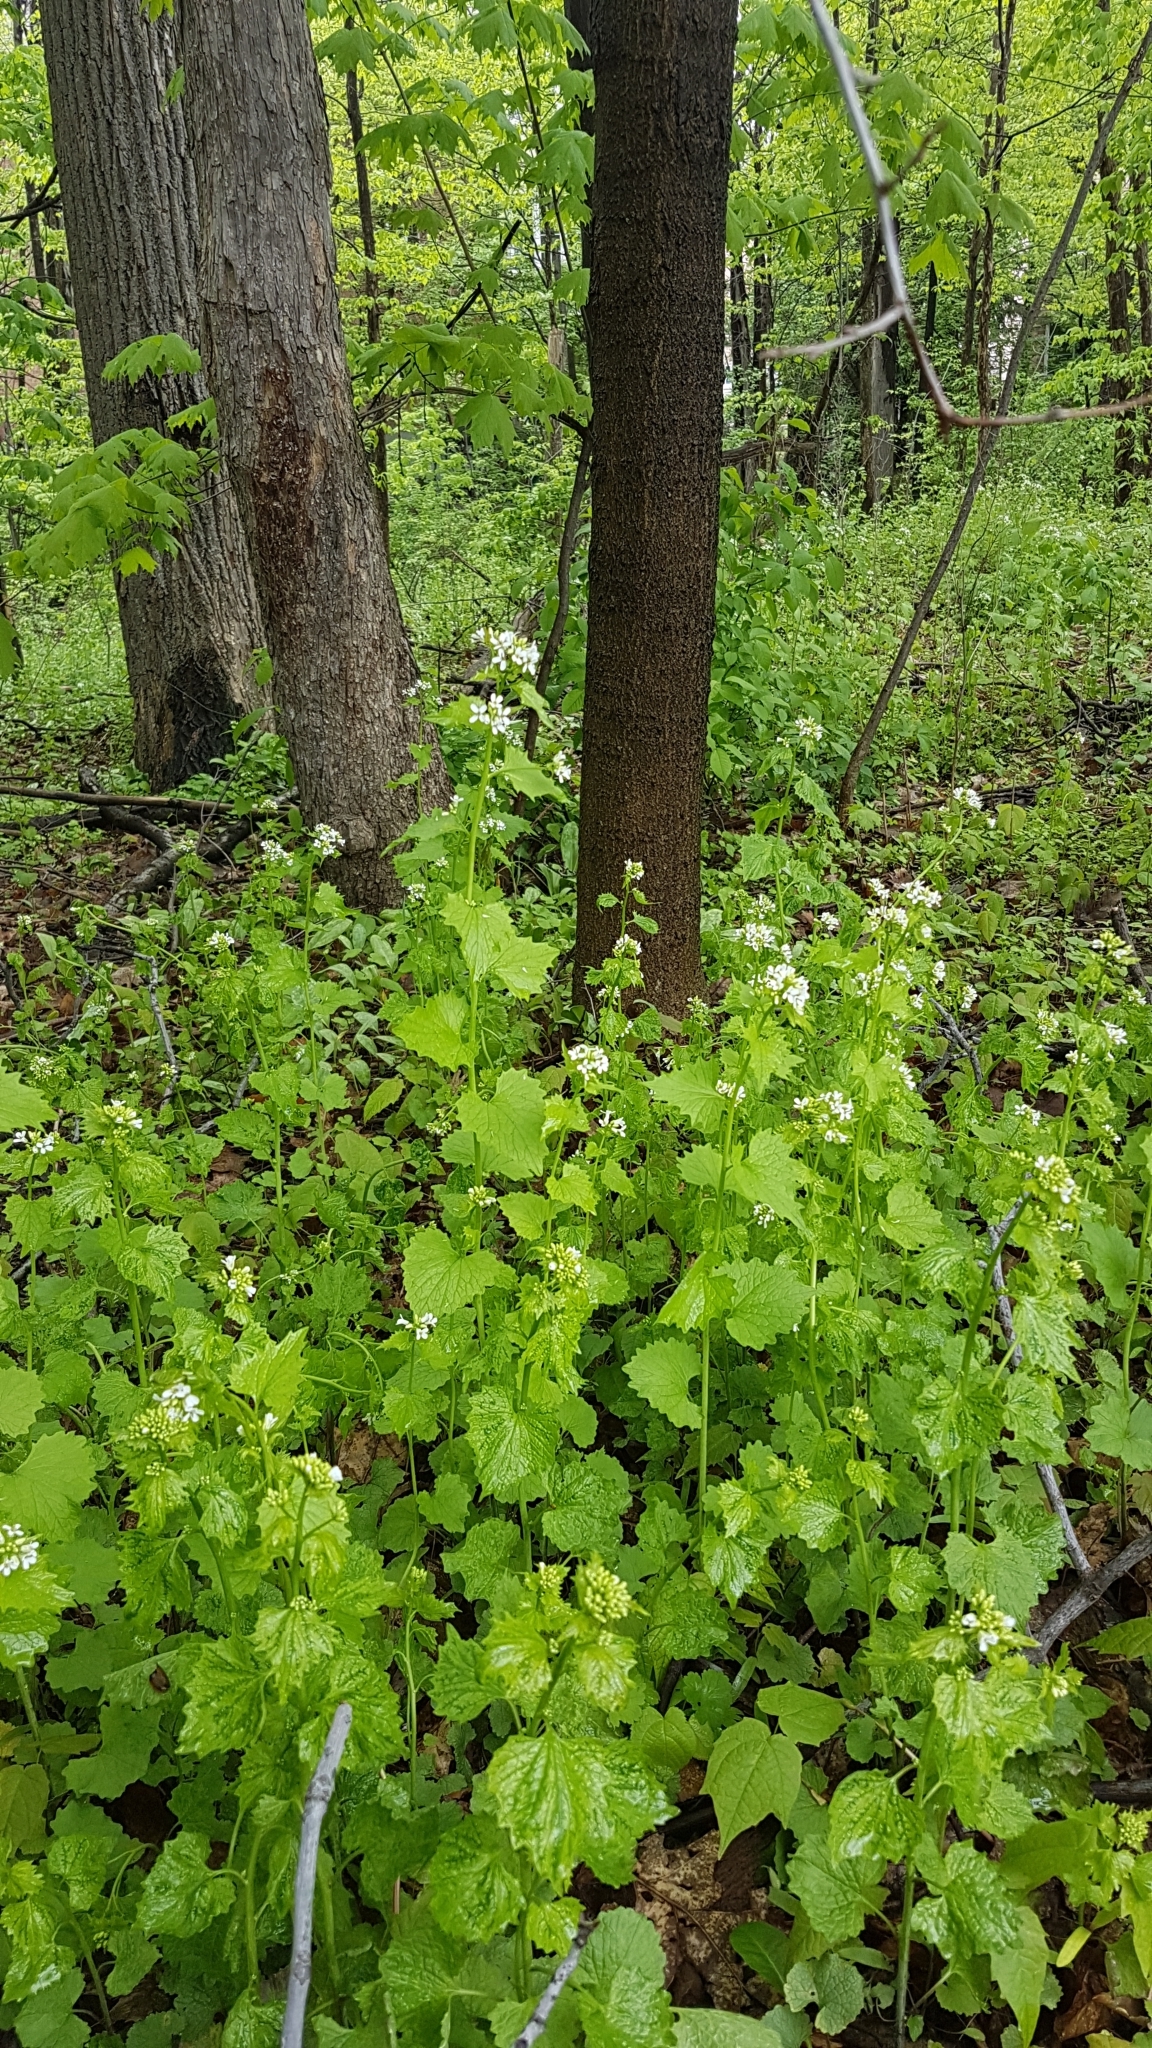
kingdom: Plantae
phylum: Tracheophyta
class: Magnoliopsida
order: Brassicales
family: Brassicaceae
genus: Alliaria
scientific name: Alliaria petiolata
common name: Garlic mustard
